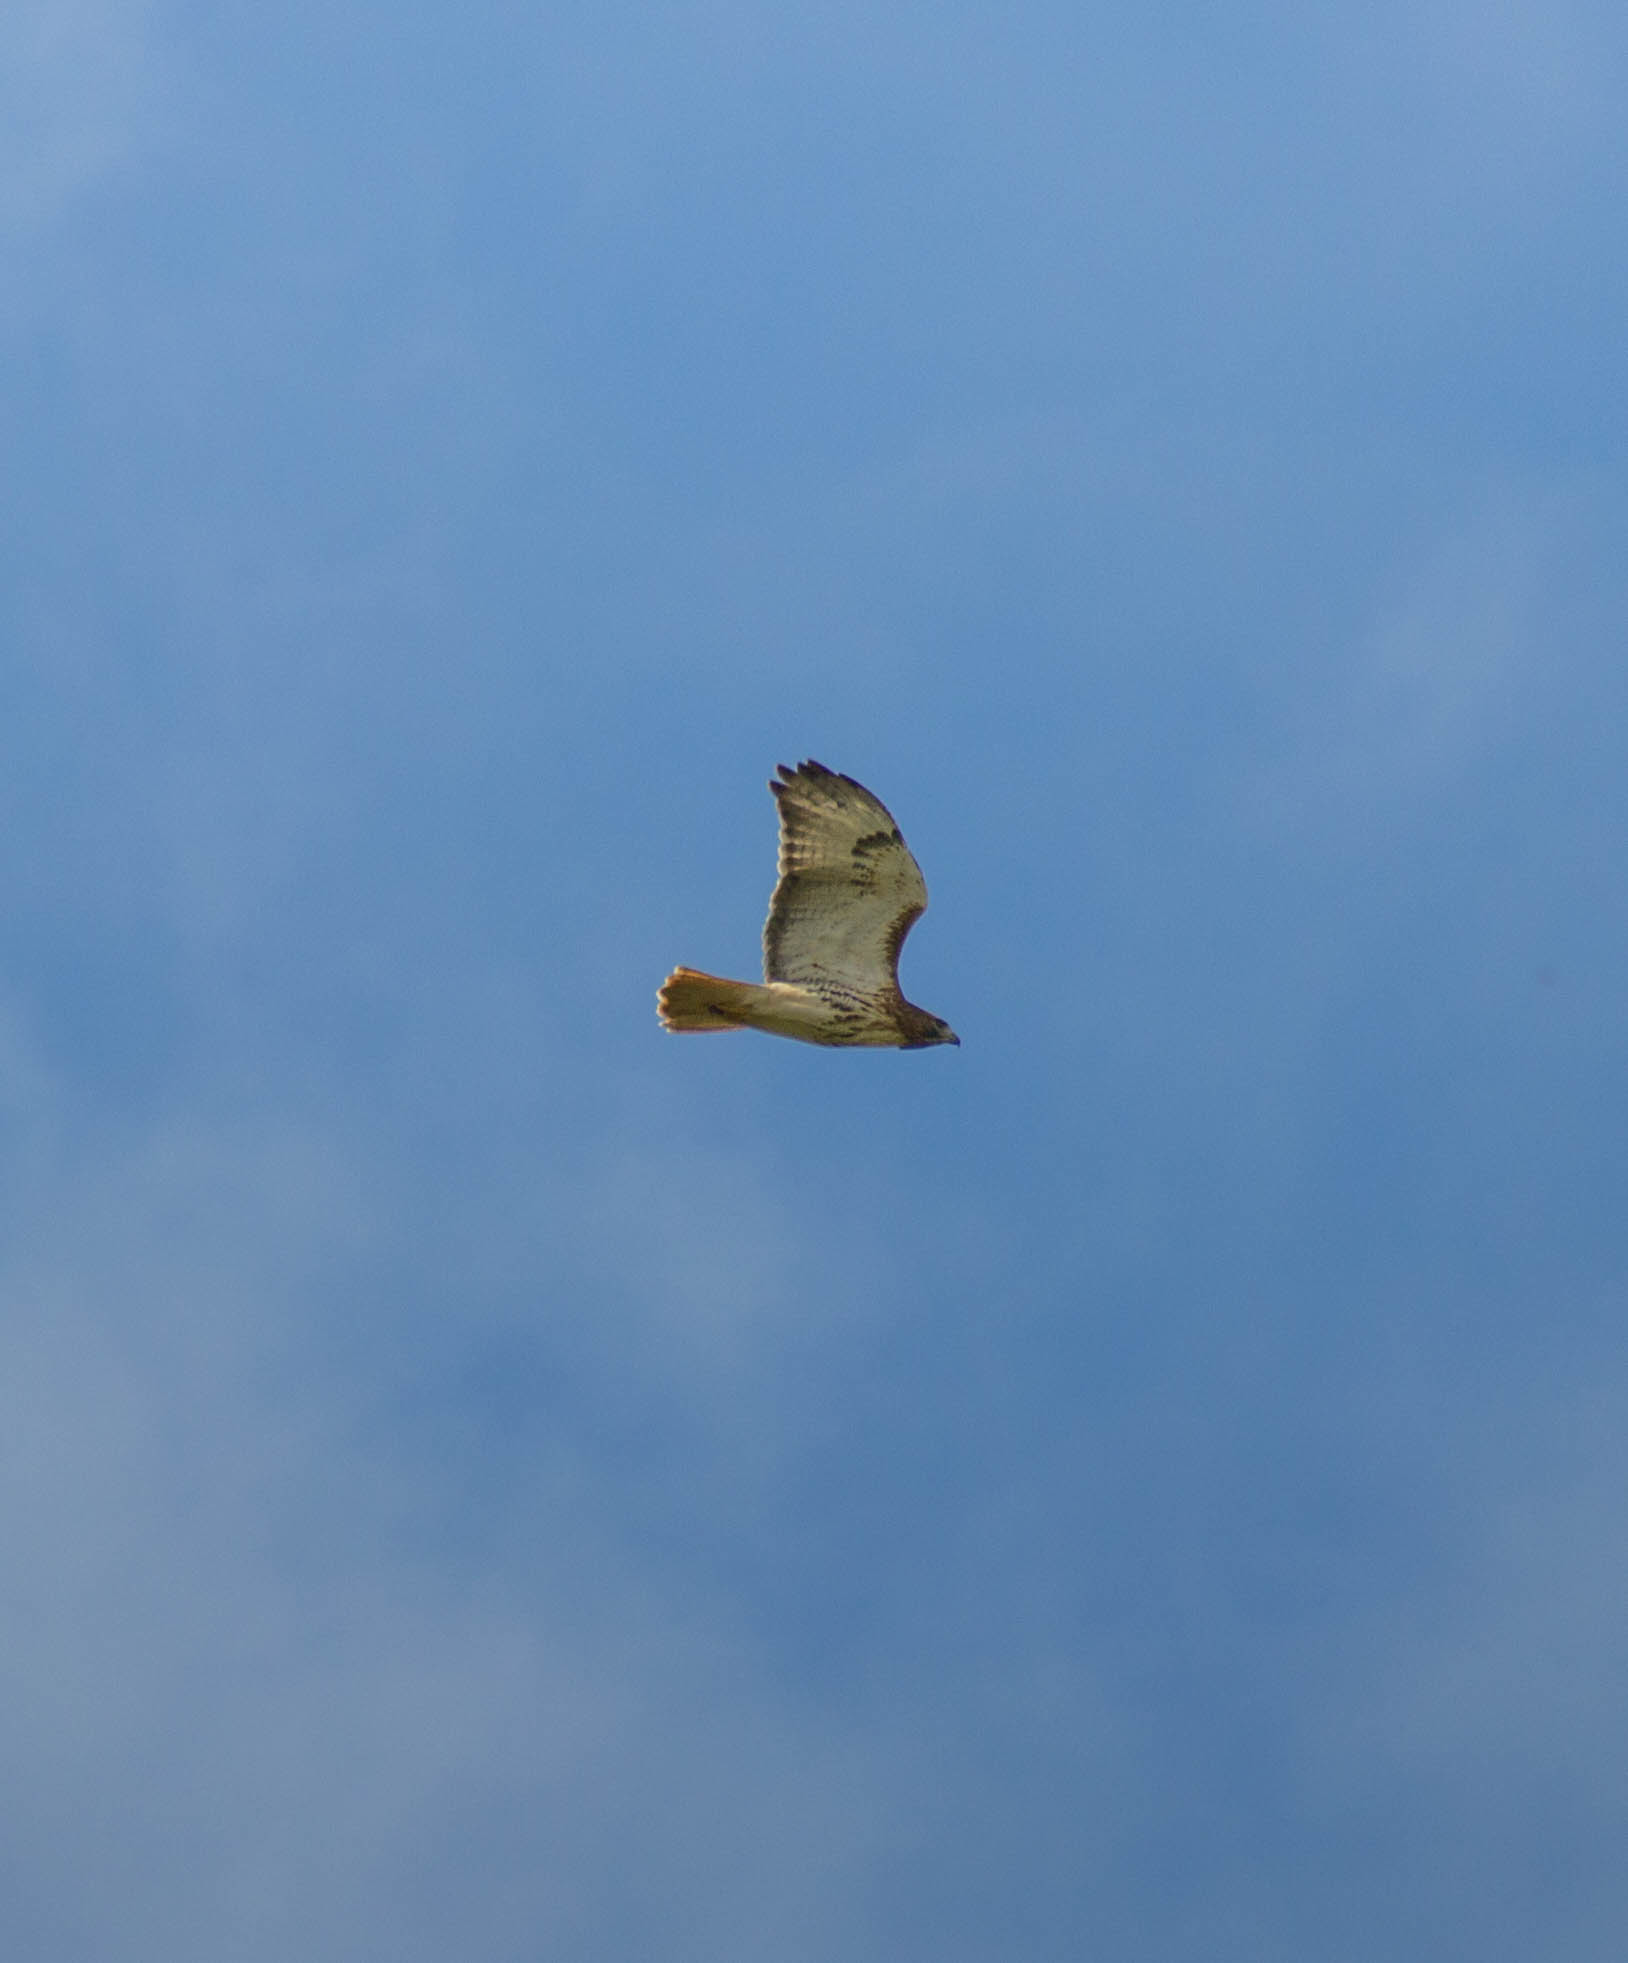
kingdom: Animalia
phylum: Chordata
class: Aves
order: Accipitriformes
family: Accipitridae
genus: Buteo
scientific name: Buteo jamaicensis
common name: Red-tailed hawk
